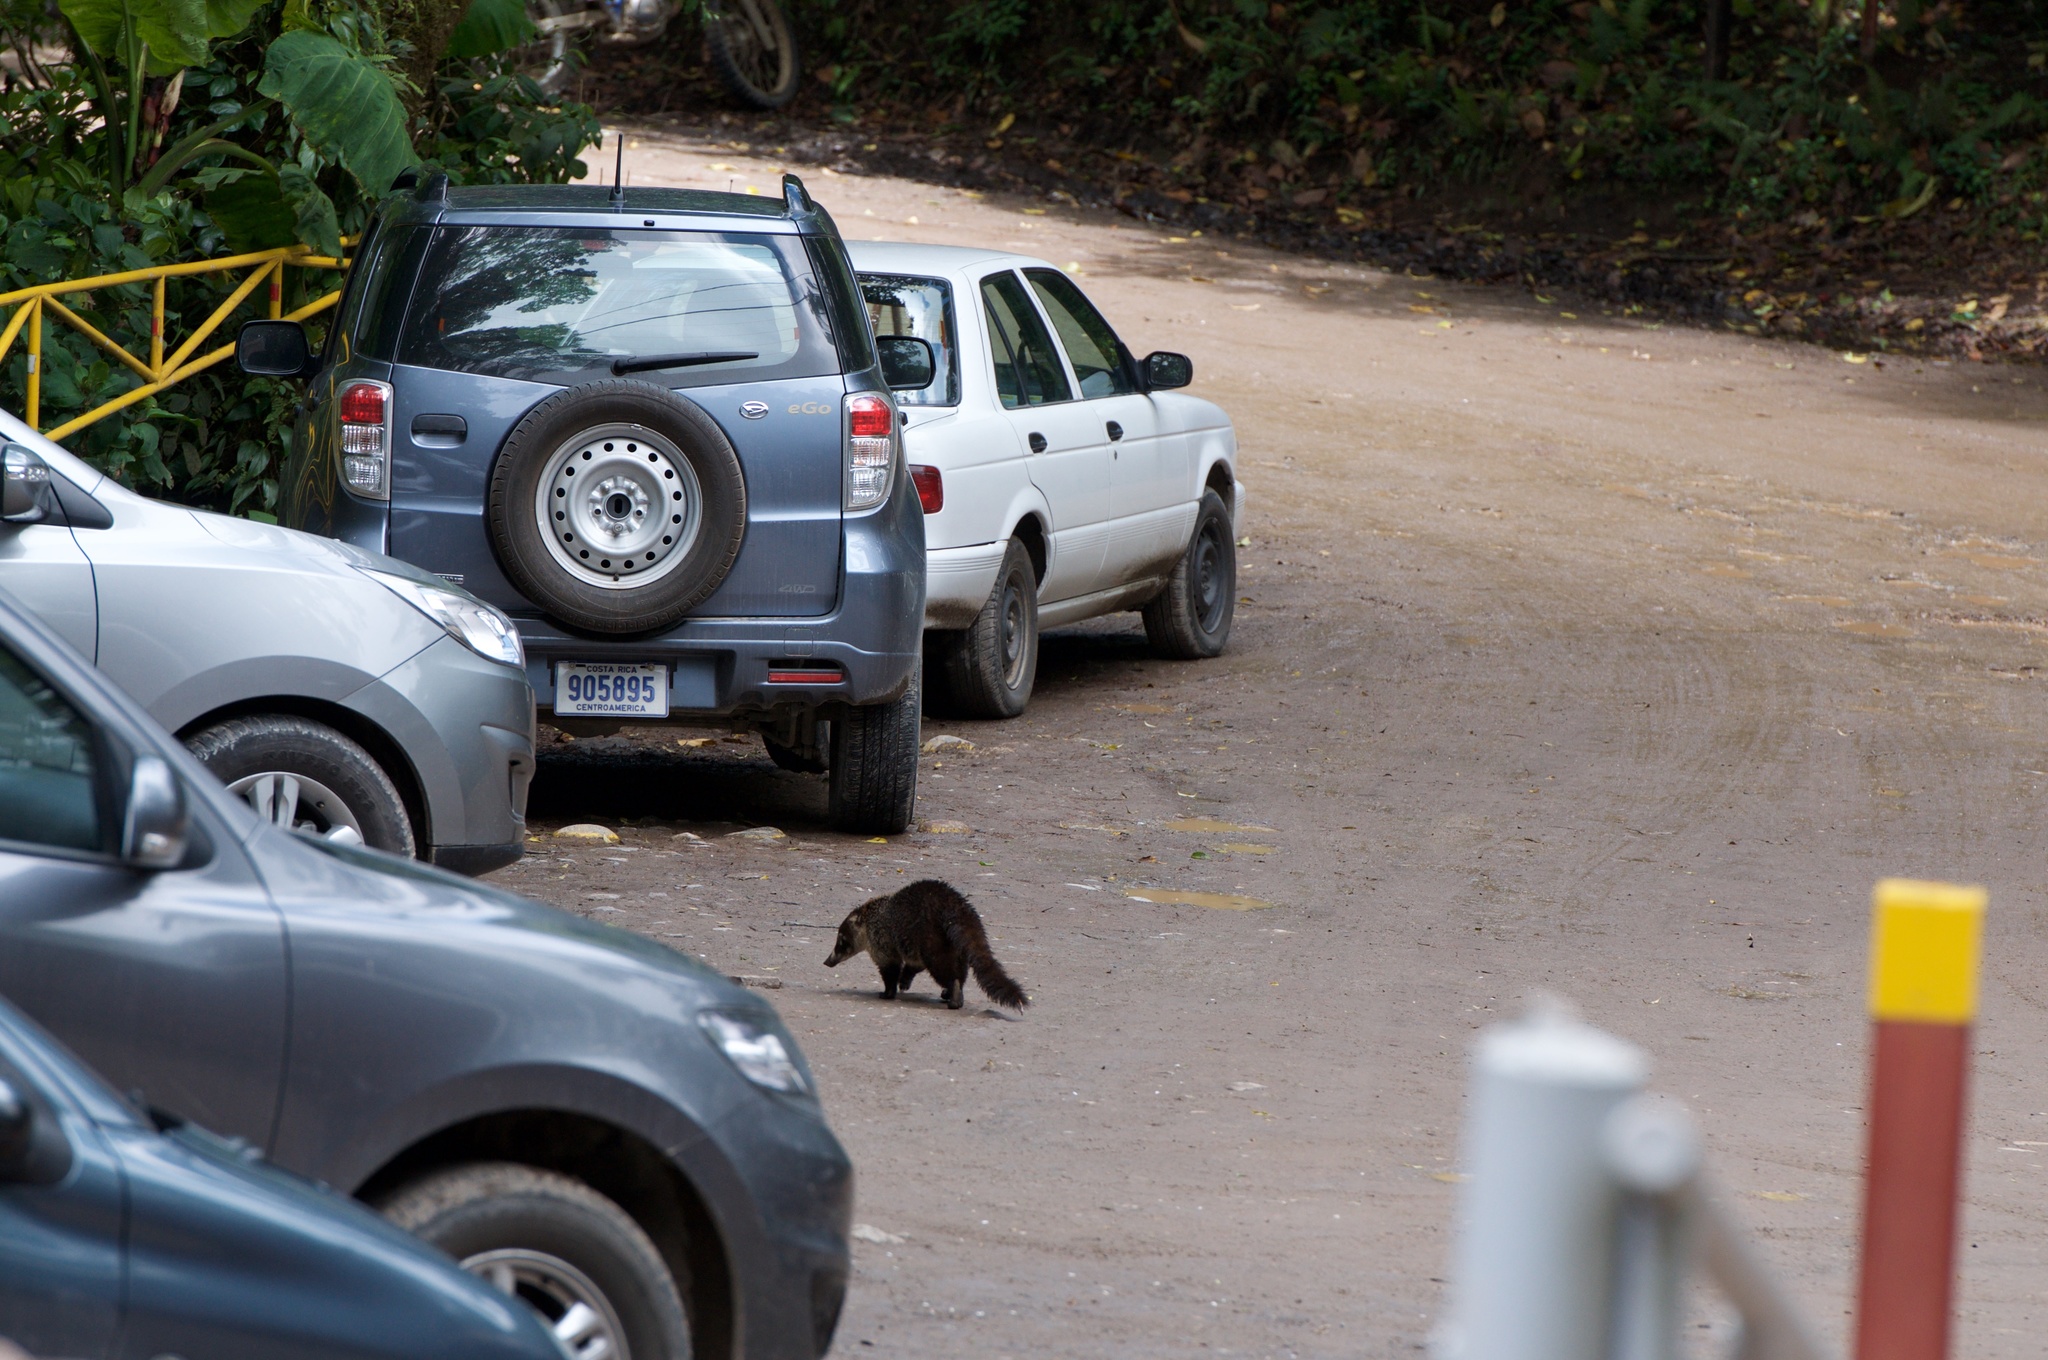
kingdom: Animalia
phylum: Chordata
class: Mammalia
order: Carnivora
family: Procyonidae
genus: Nasua
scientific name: Nasua narica
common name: White-nosed coati
